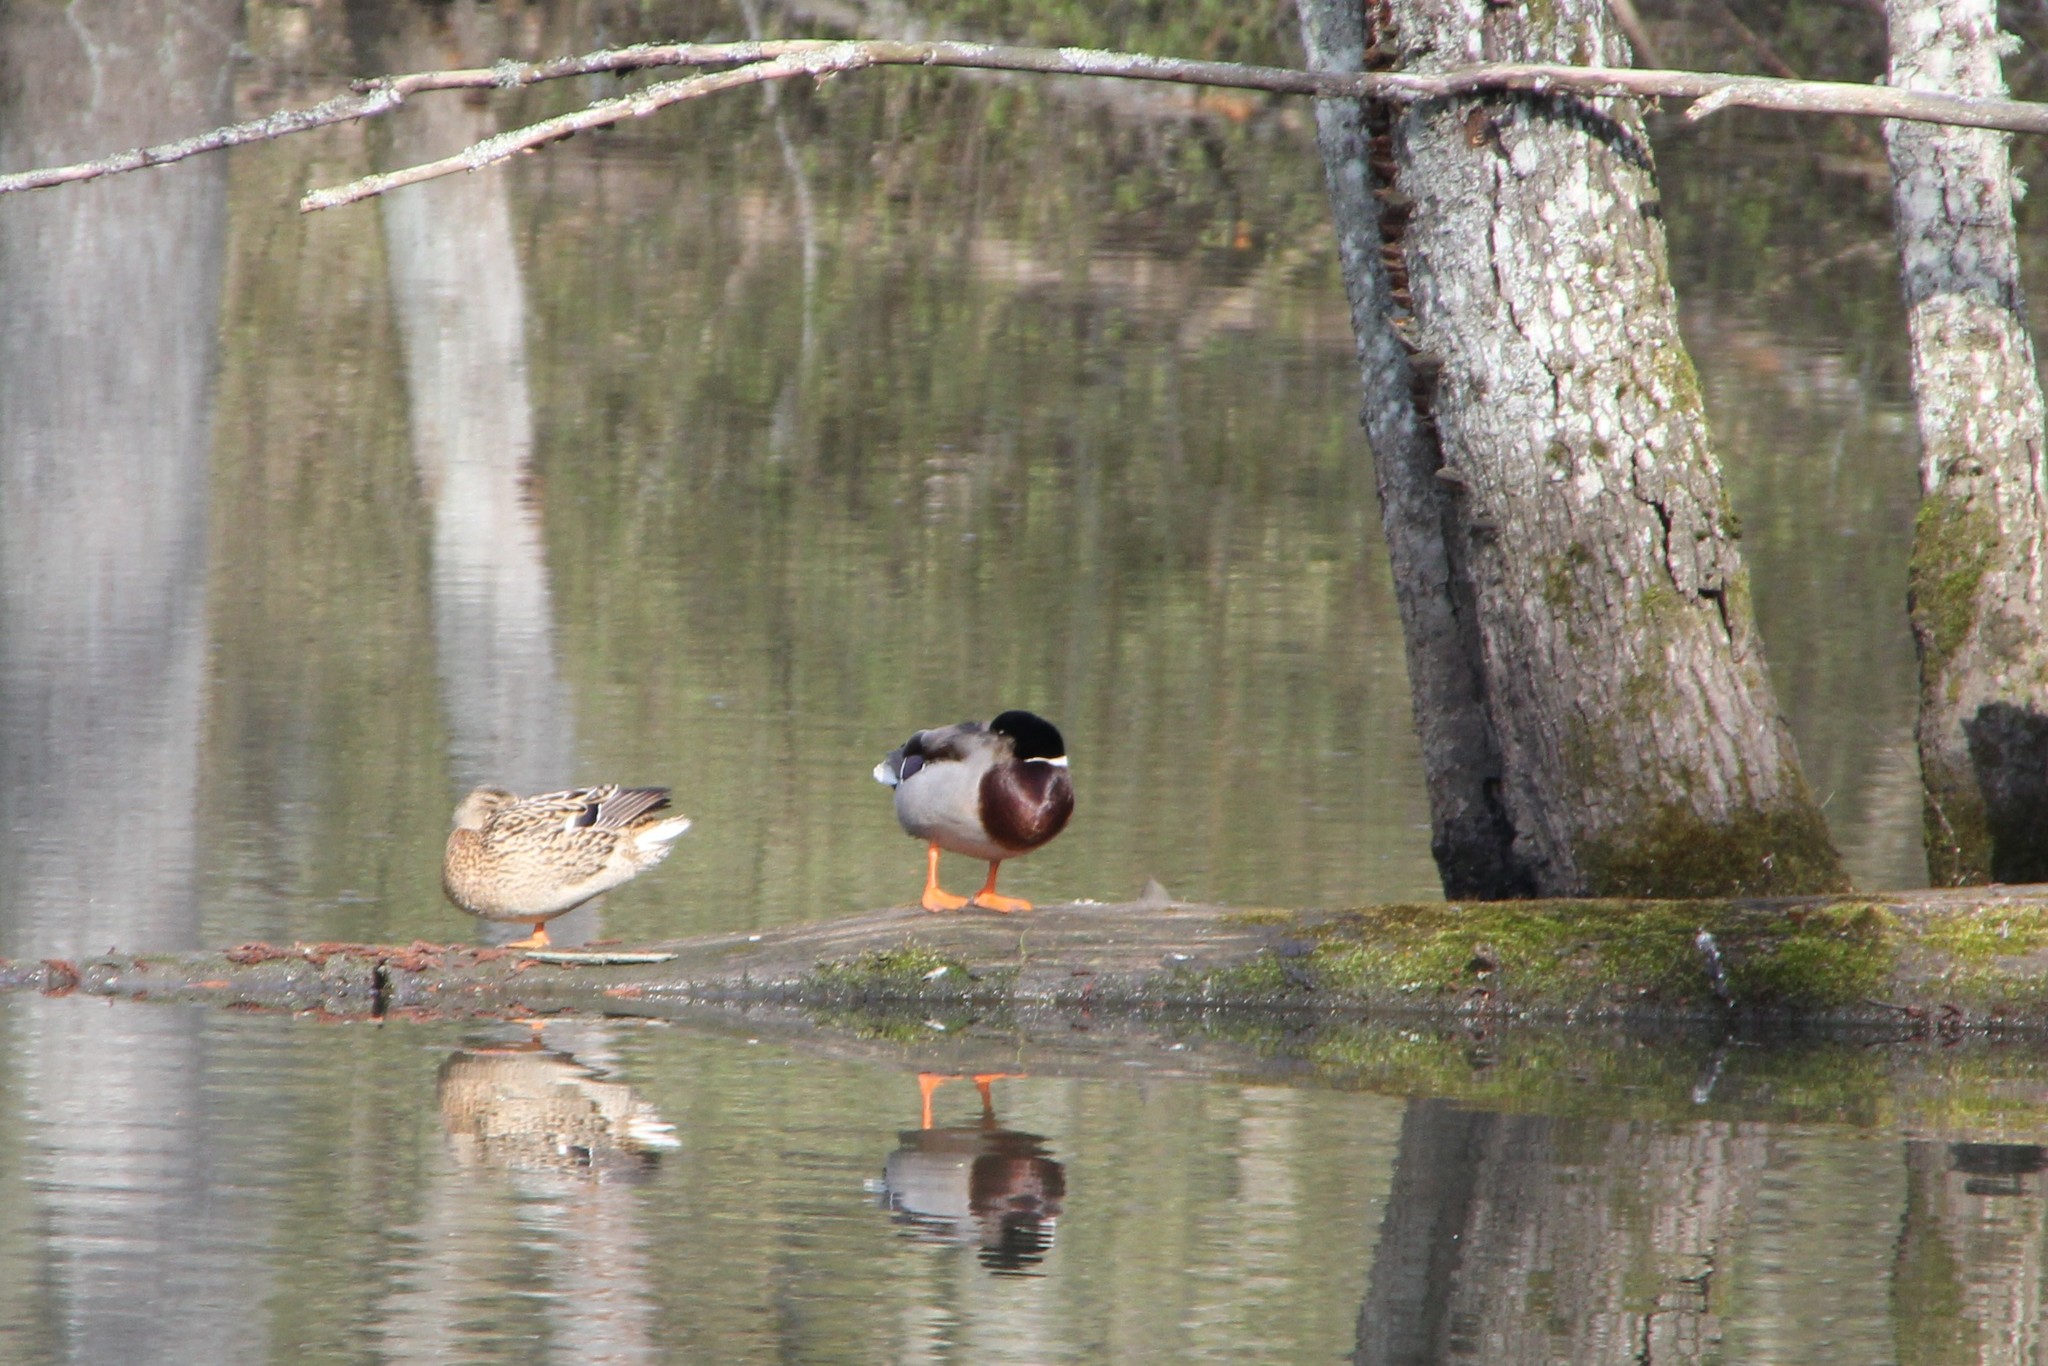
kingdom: Animalia
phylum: Chordata
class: Aves
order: Anseriformes
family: Anatidae
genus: Anas
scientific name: Anas platyrhynchos
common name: Mallard
